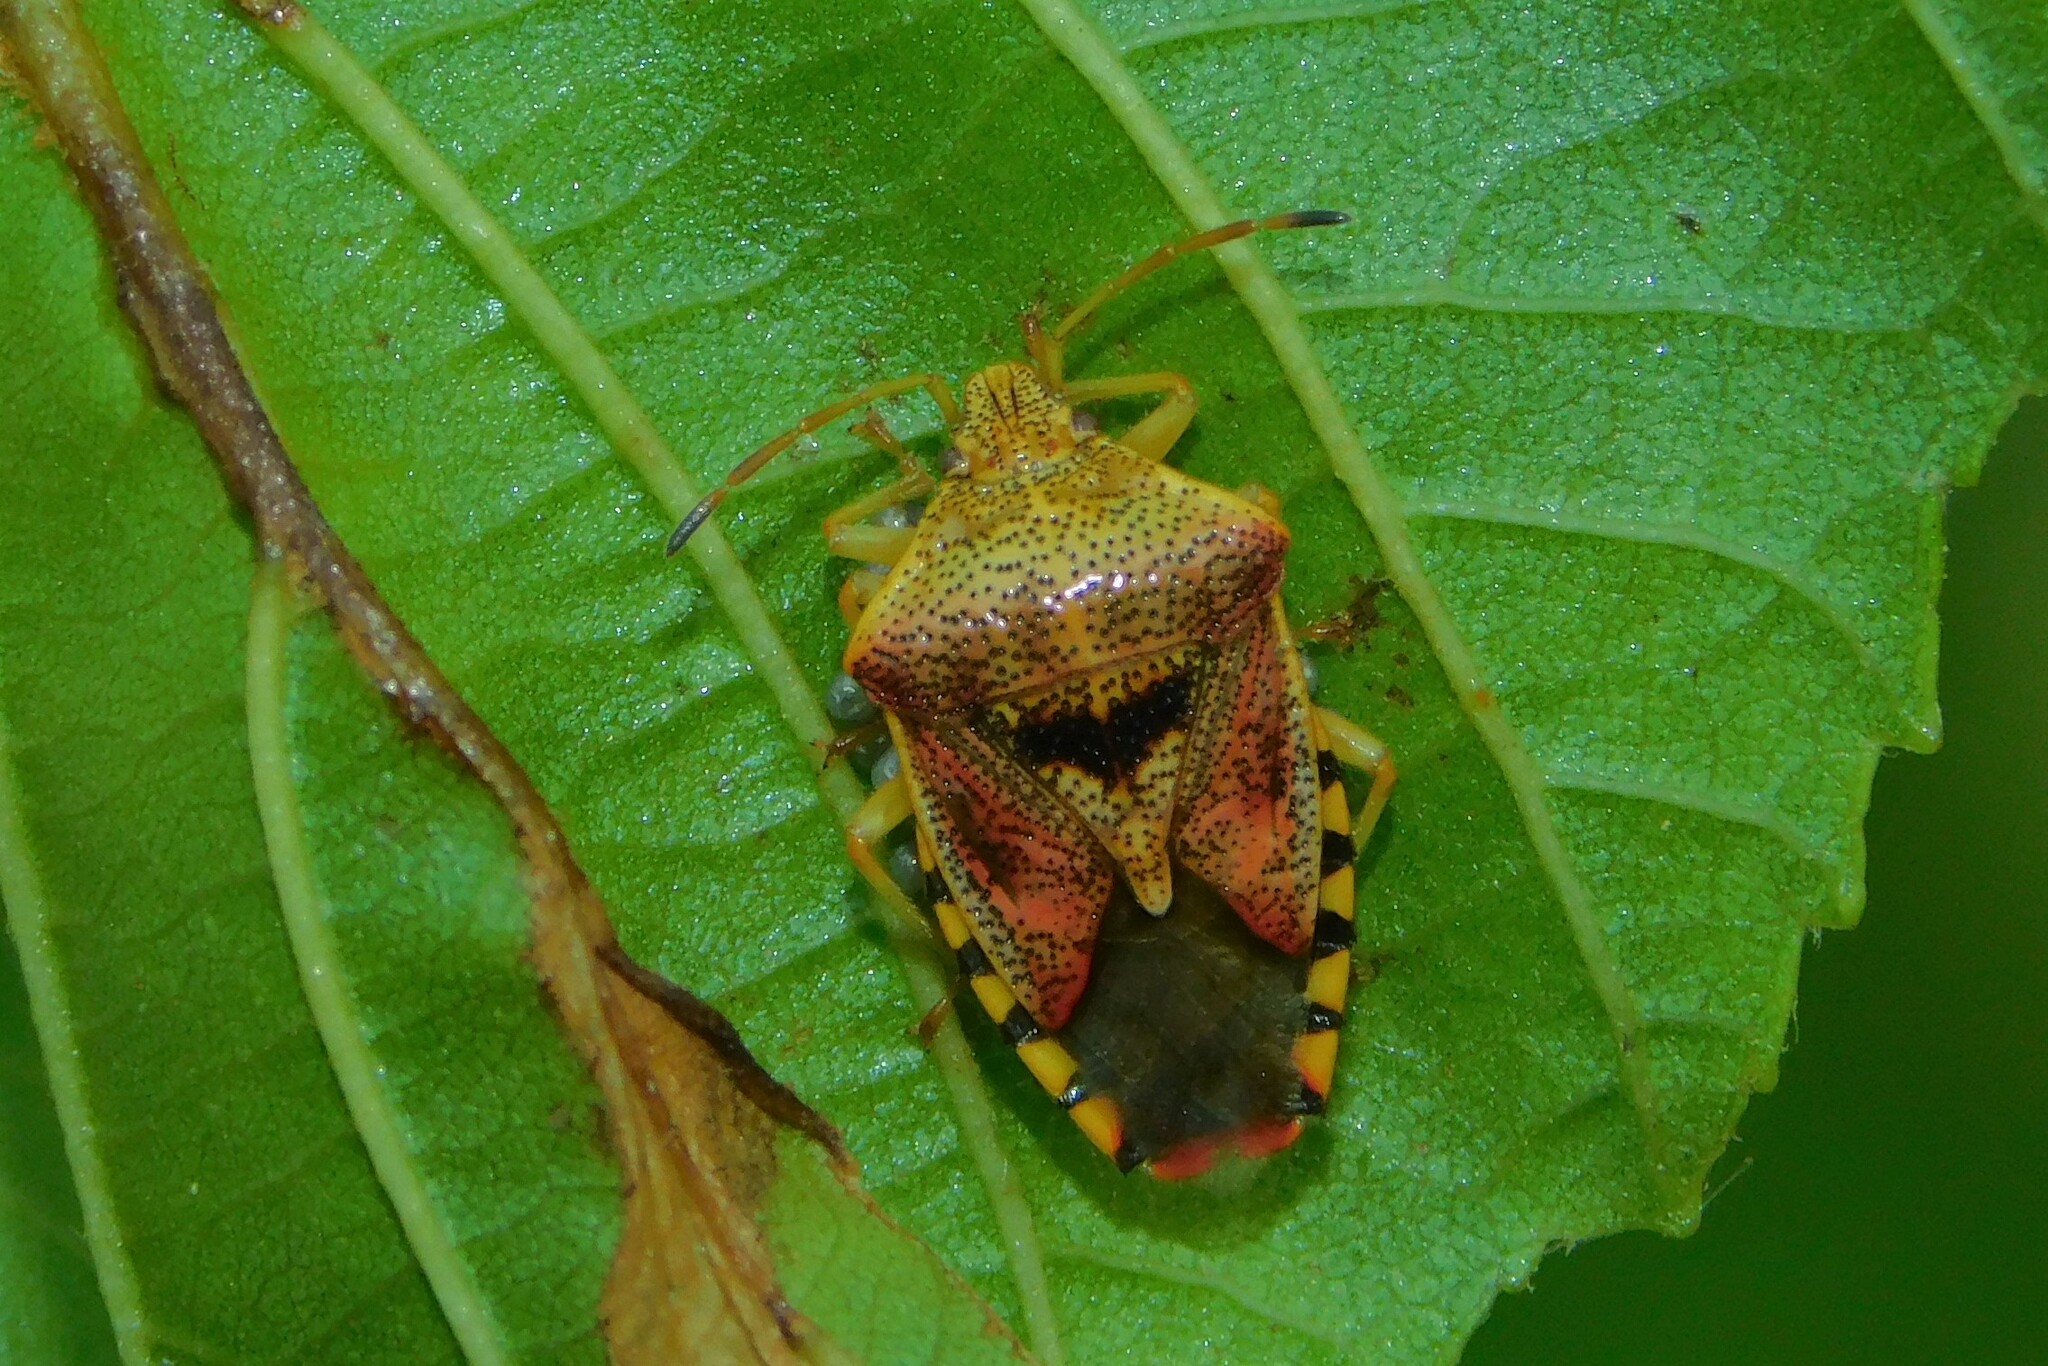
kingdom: Animalia
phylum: Arthropoda
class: Insecta
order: Hemiptera
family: Acanthosomatidae
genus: Elasmucha
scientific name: Elasmucha grisea
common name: Parent bug
